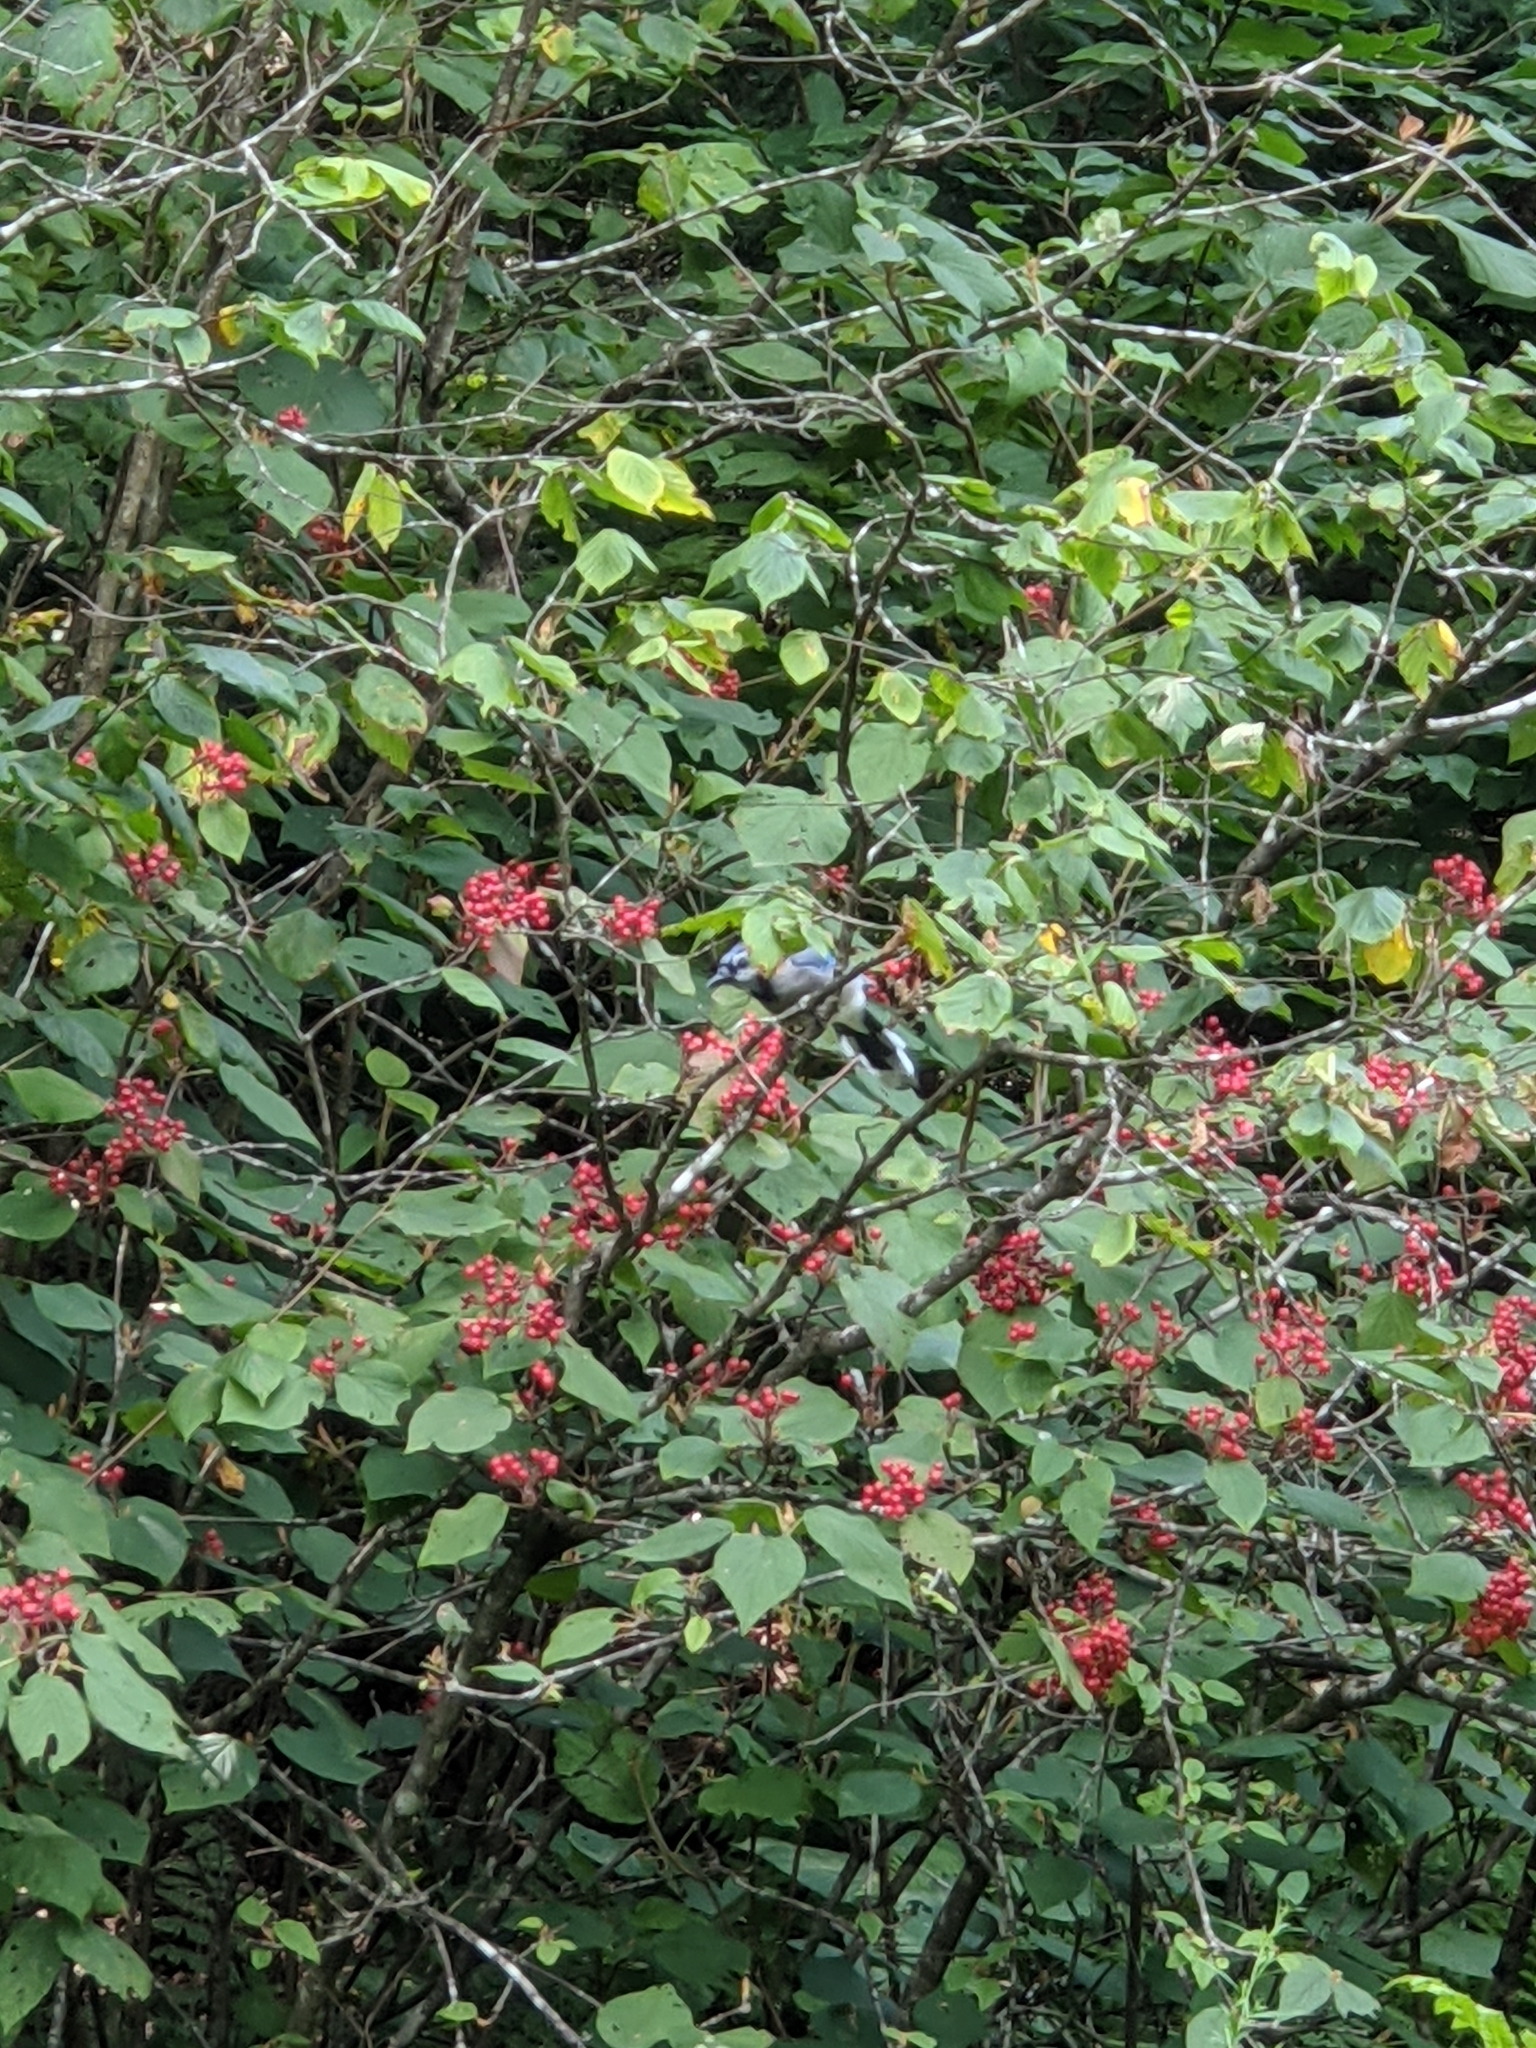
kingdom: Animalia
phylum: Chordata
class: Aves
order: Passeriformes
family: Corvidae
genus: Cyanocitta
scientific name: Cyanocitta cristata
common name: Blue jay
